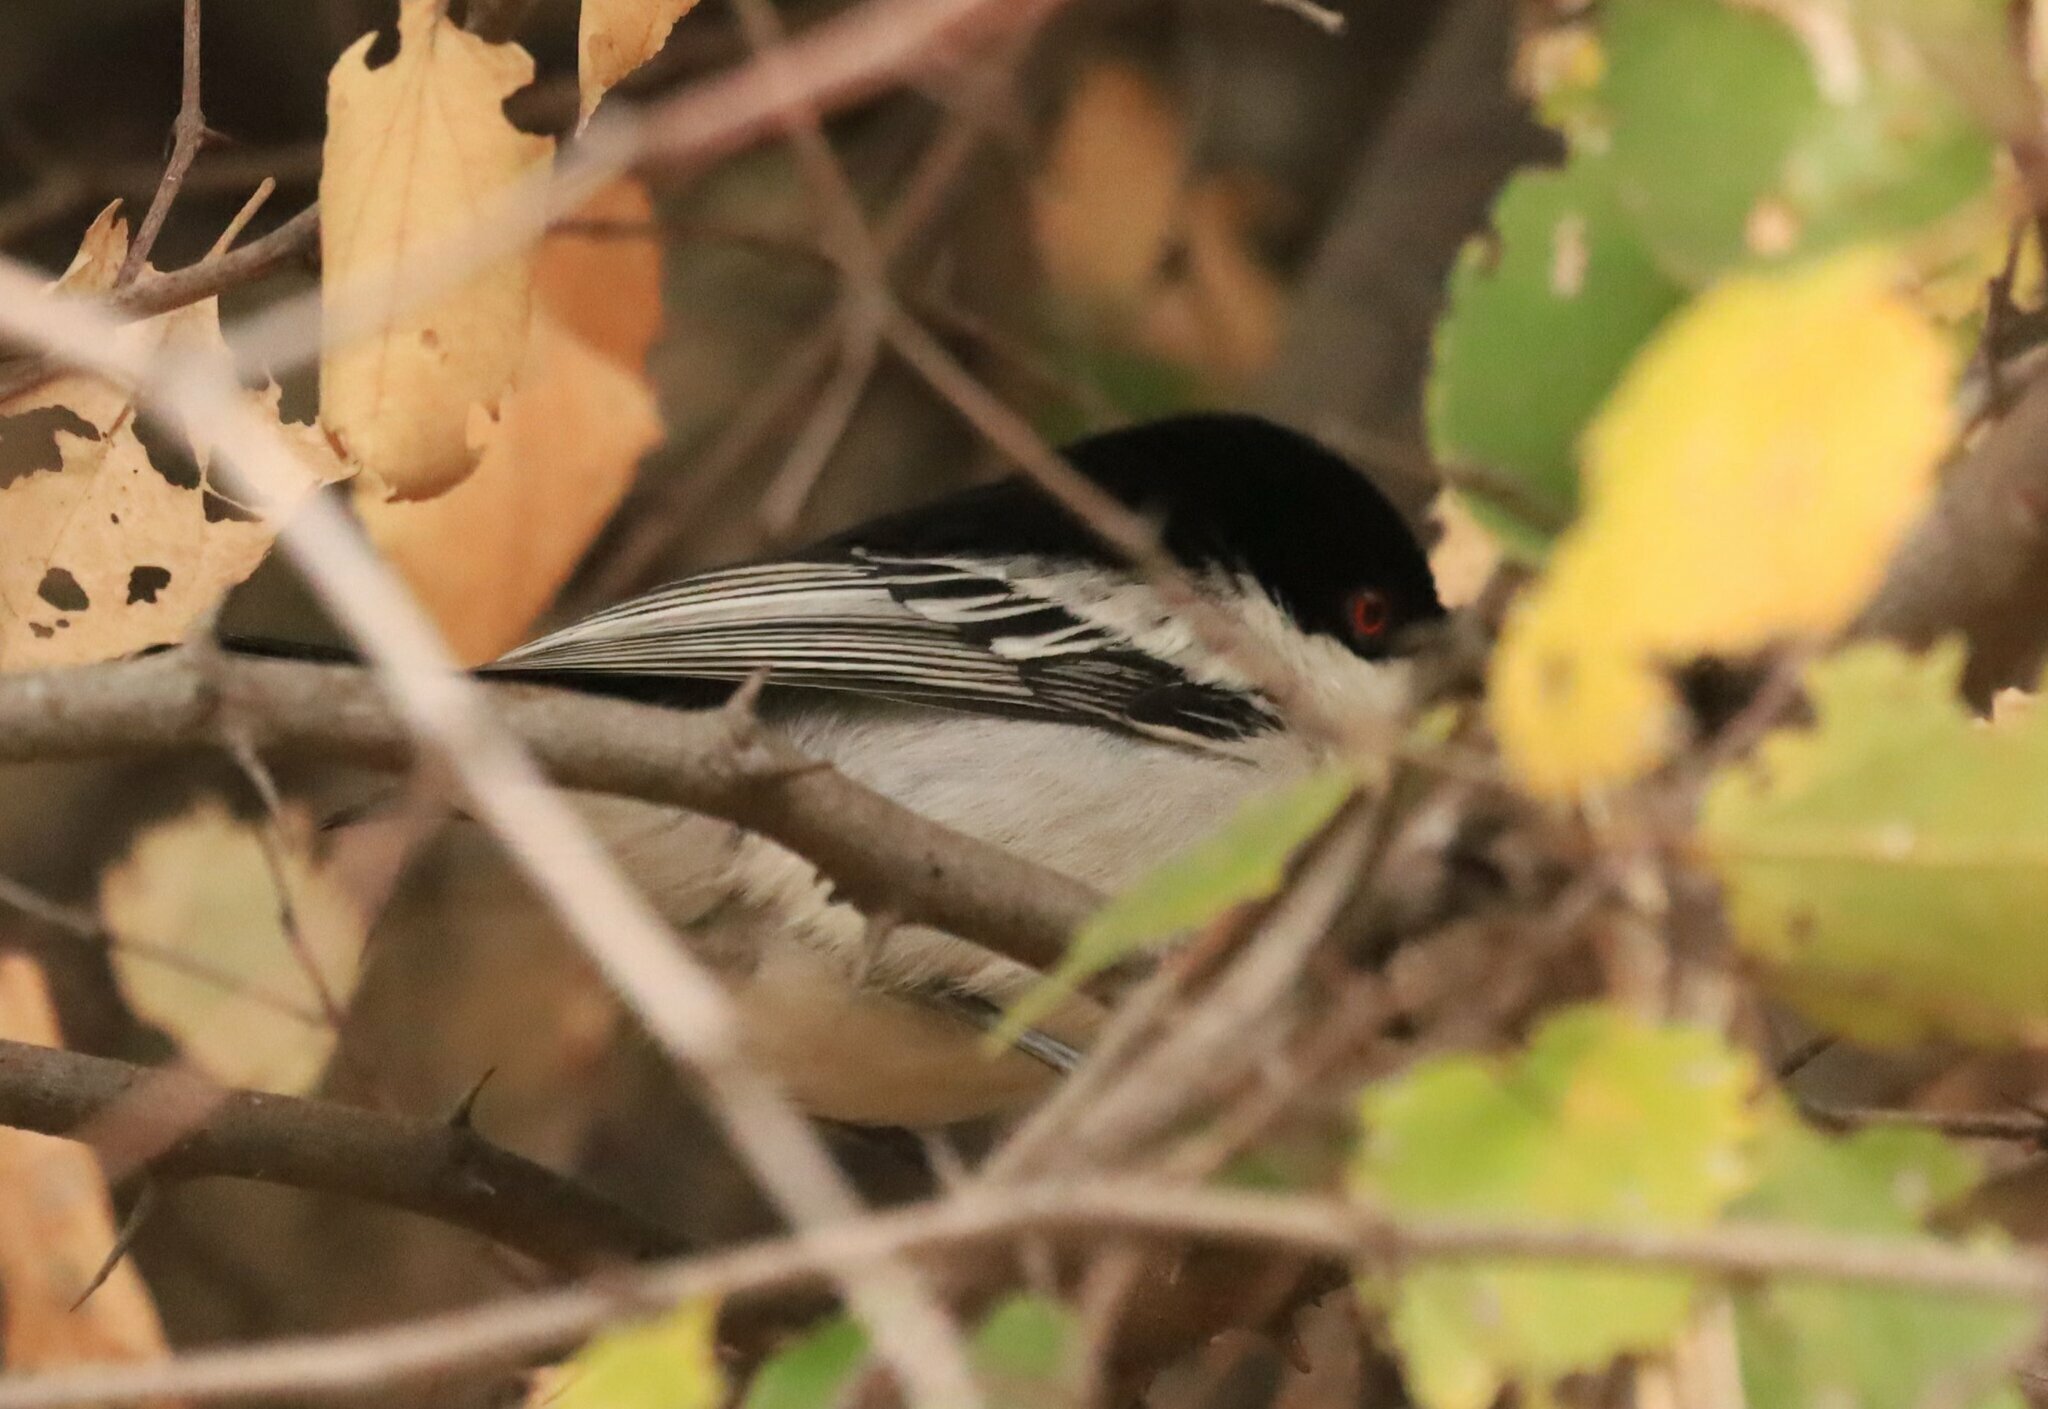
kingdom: Animalia
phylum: Chordata
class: Aves
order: Passeriformes
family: Malaconotidae
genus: Dryoscopus
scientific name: Dryoscopus cubla
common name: Black-backed puffback
